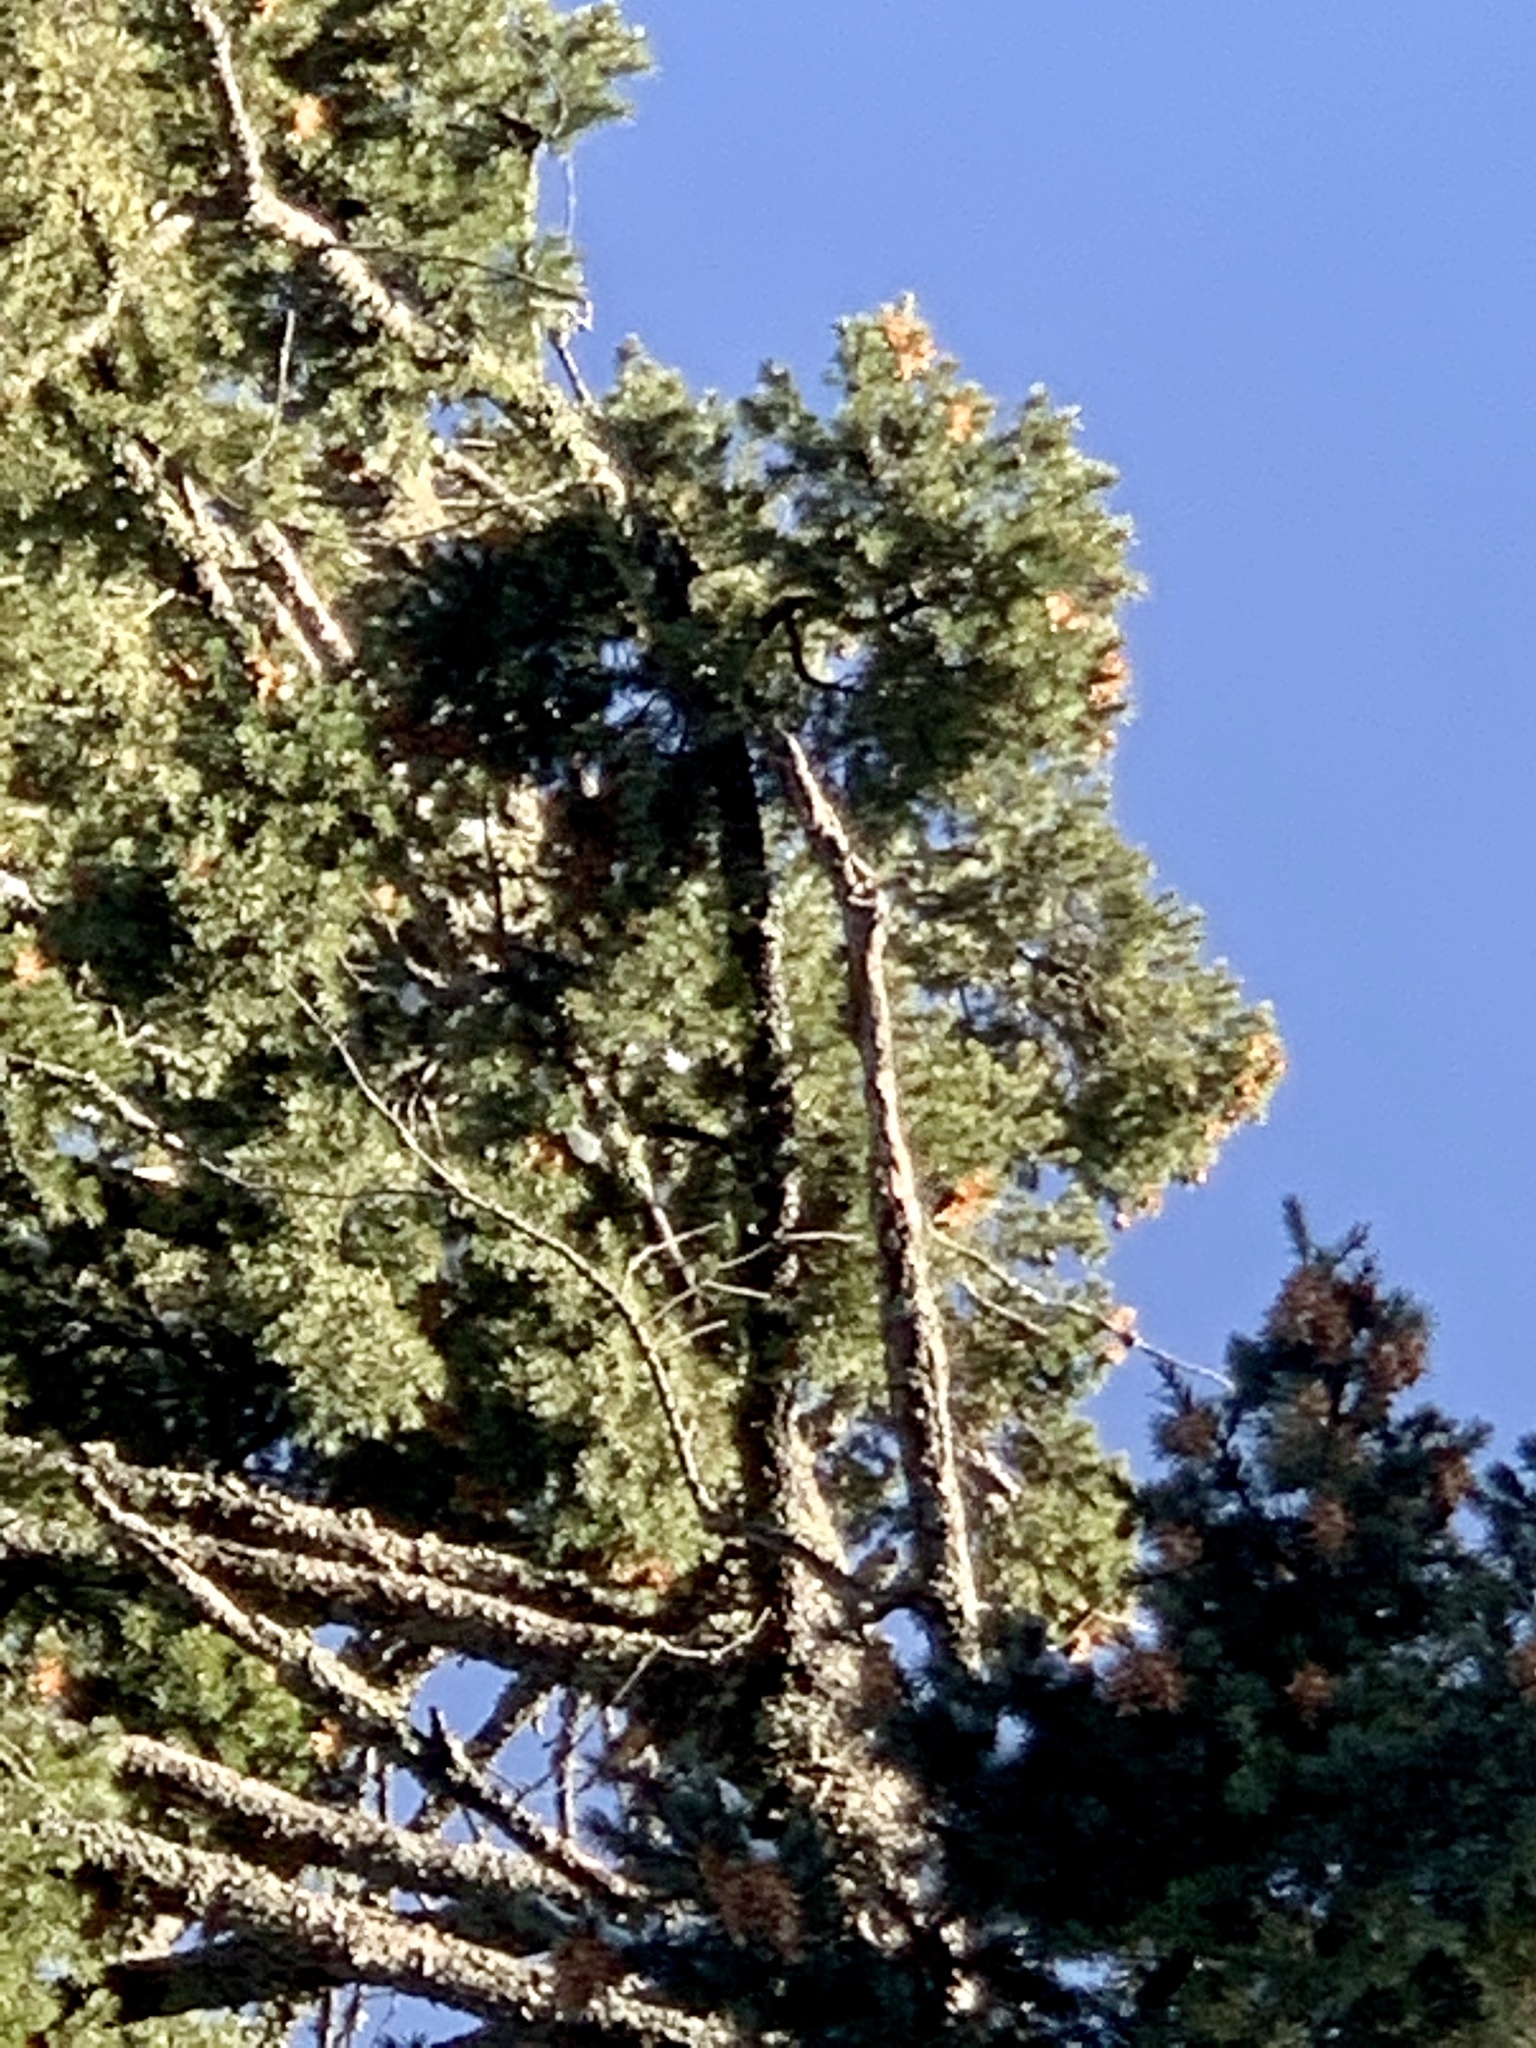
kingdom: Plantae
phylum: Tracheophyta
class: Pinopsida
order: Pinales
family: Pinaceae
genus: Pseudotsuga
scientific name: Pseudotsuga menziesii
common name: Douglas fir
